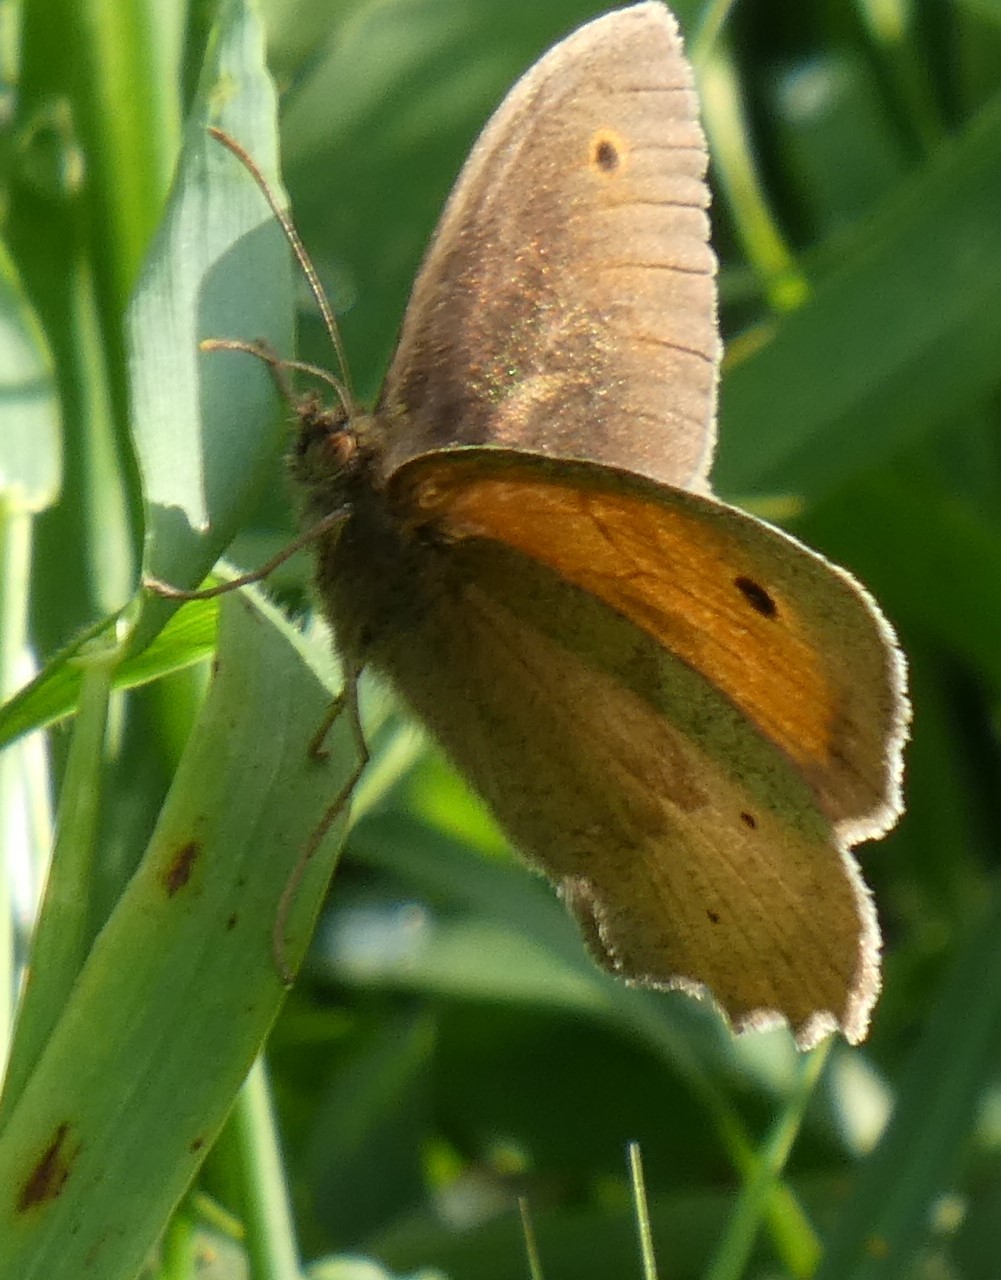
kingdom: Animalia
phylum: Arthropoda
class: Insecta
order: Lepidoptera
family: Nymphalidae
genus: Maniola
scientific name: Maniola jurtina
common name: Meadow brown
